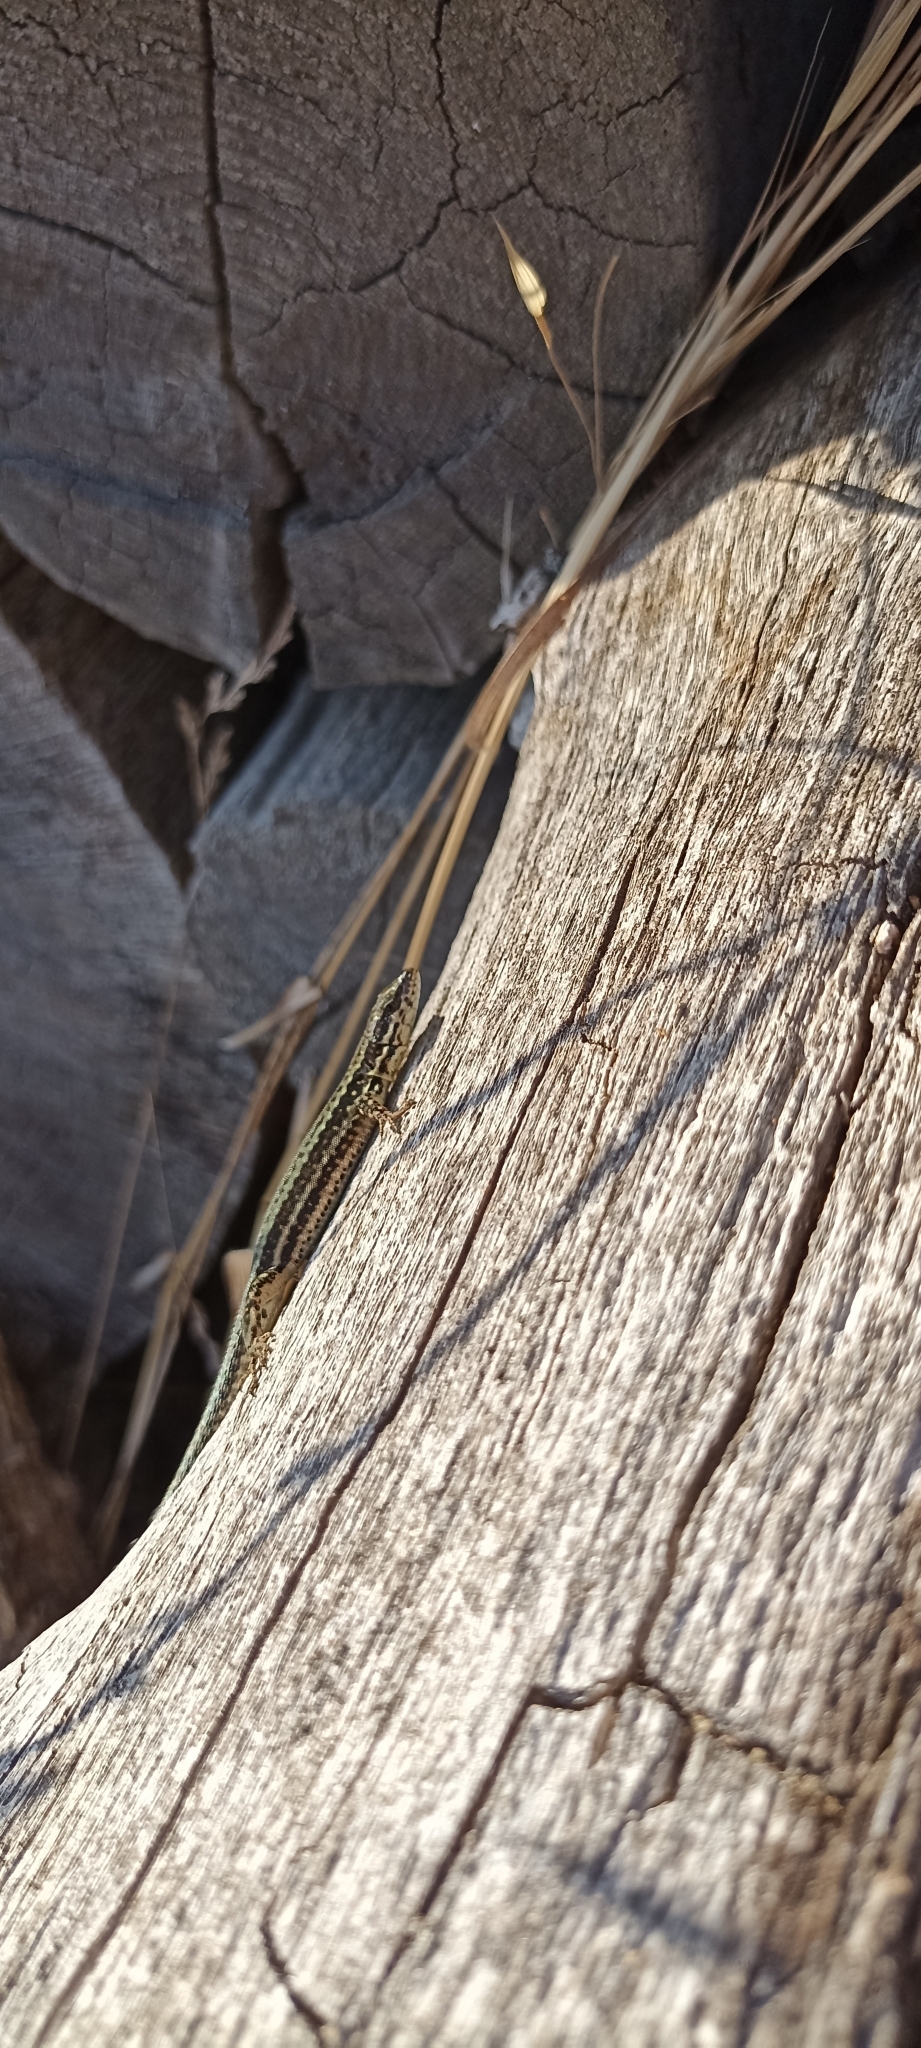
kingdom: Animalia
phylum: Chordata
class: Squamata
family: Lacertidae
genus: Podarcis
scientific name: Podarcis muralis
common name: Common wall lizard
